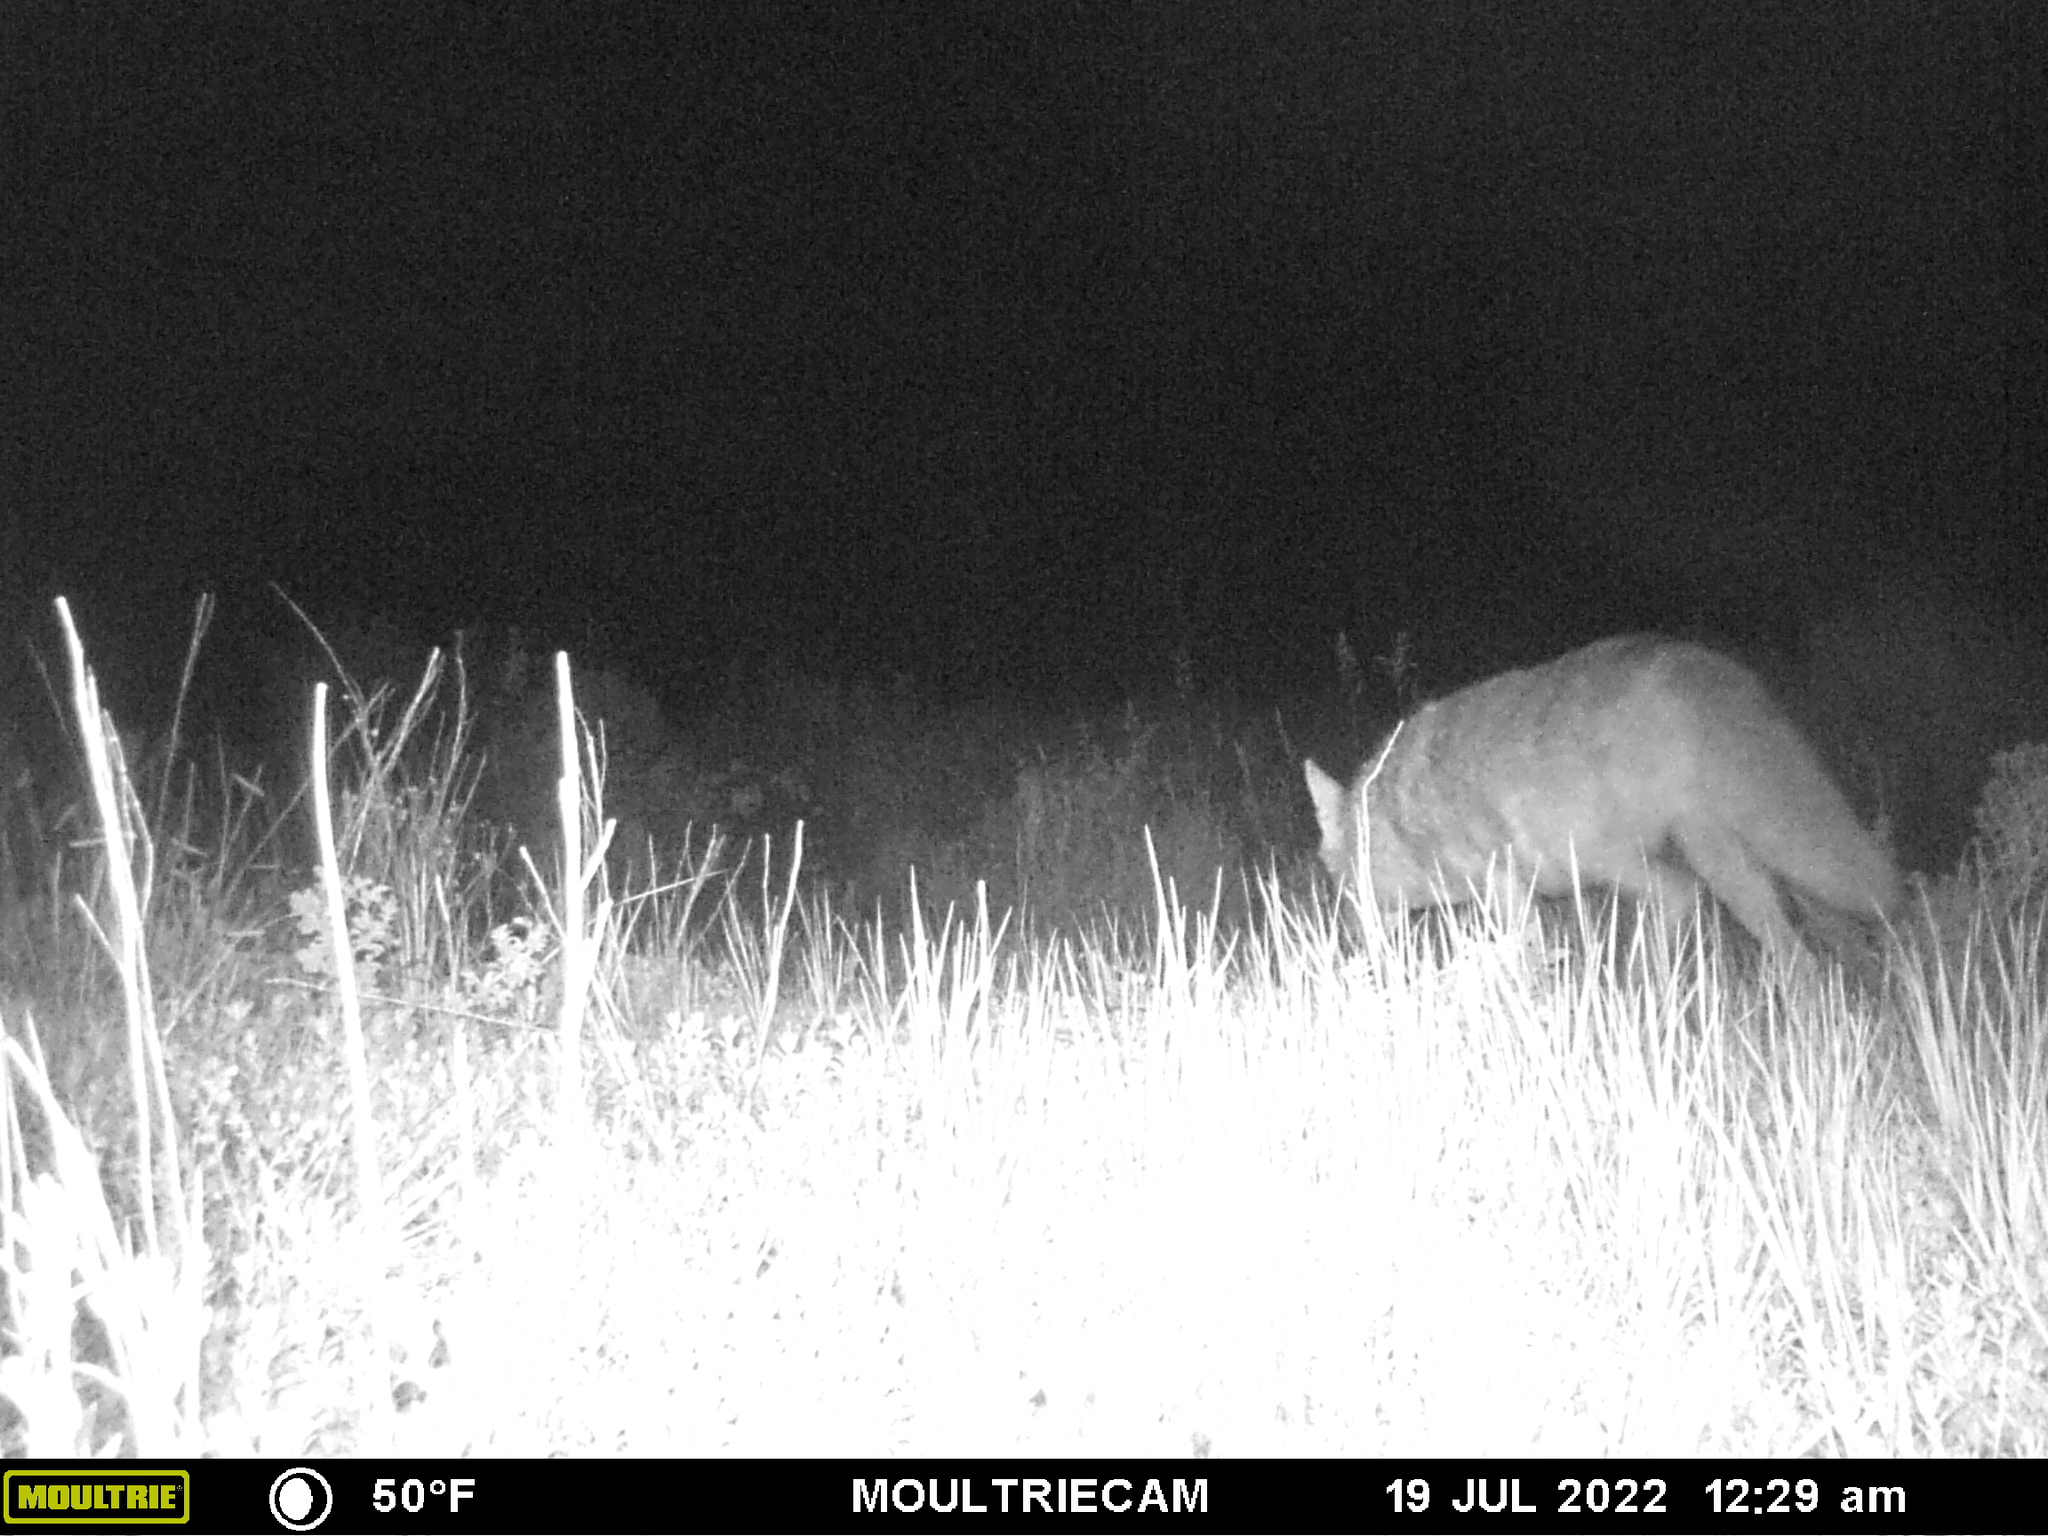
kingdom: Animalia
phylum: Chordata
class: Mammalia
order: Carnivora
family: Canidae
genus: Canis
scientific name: Canis latrans
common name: Coyote
